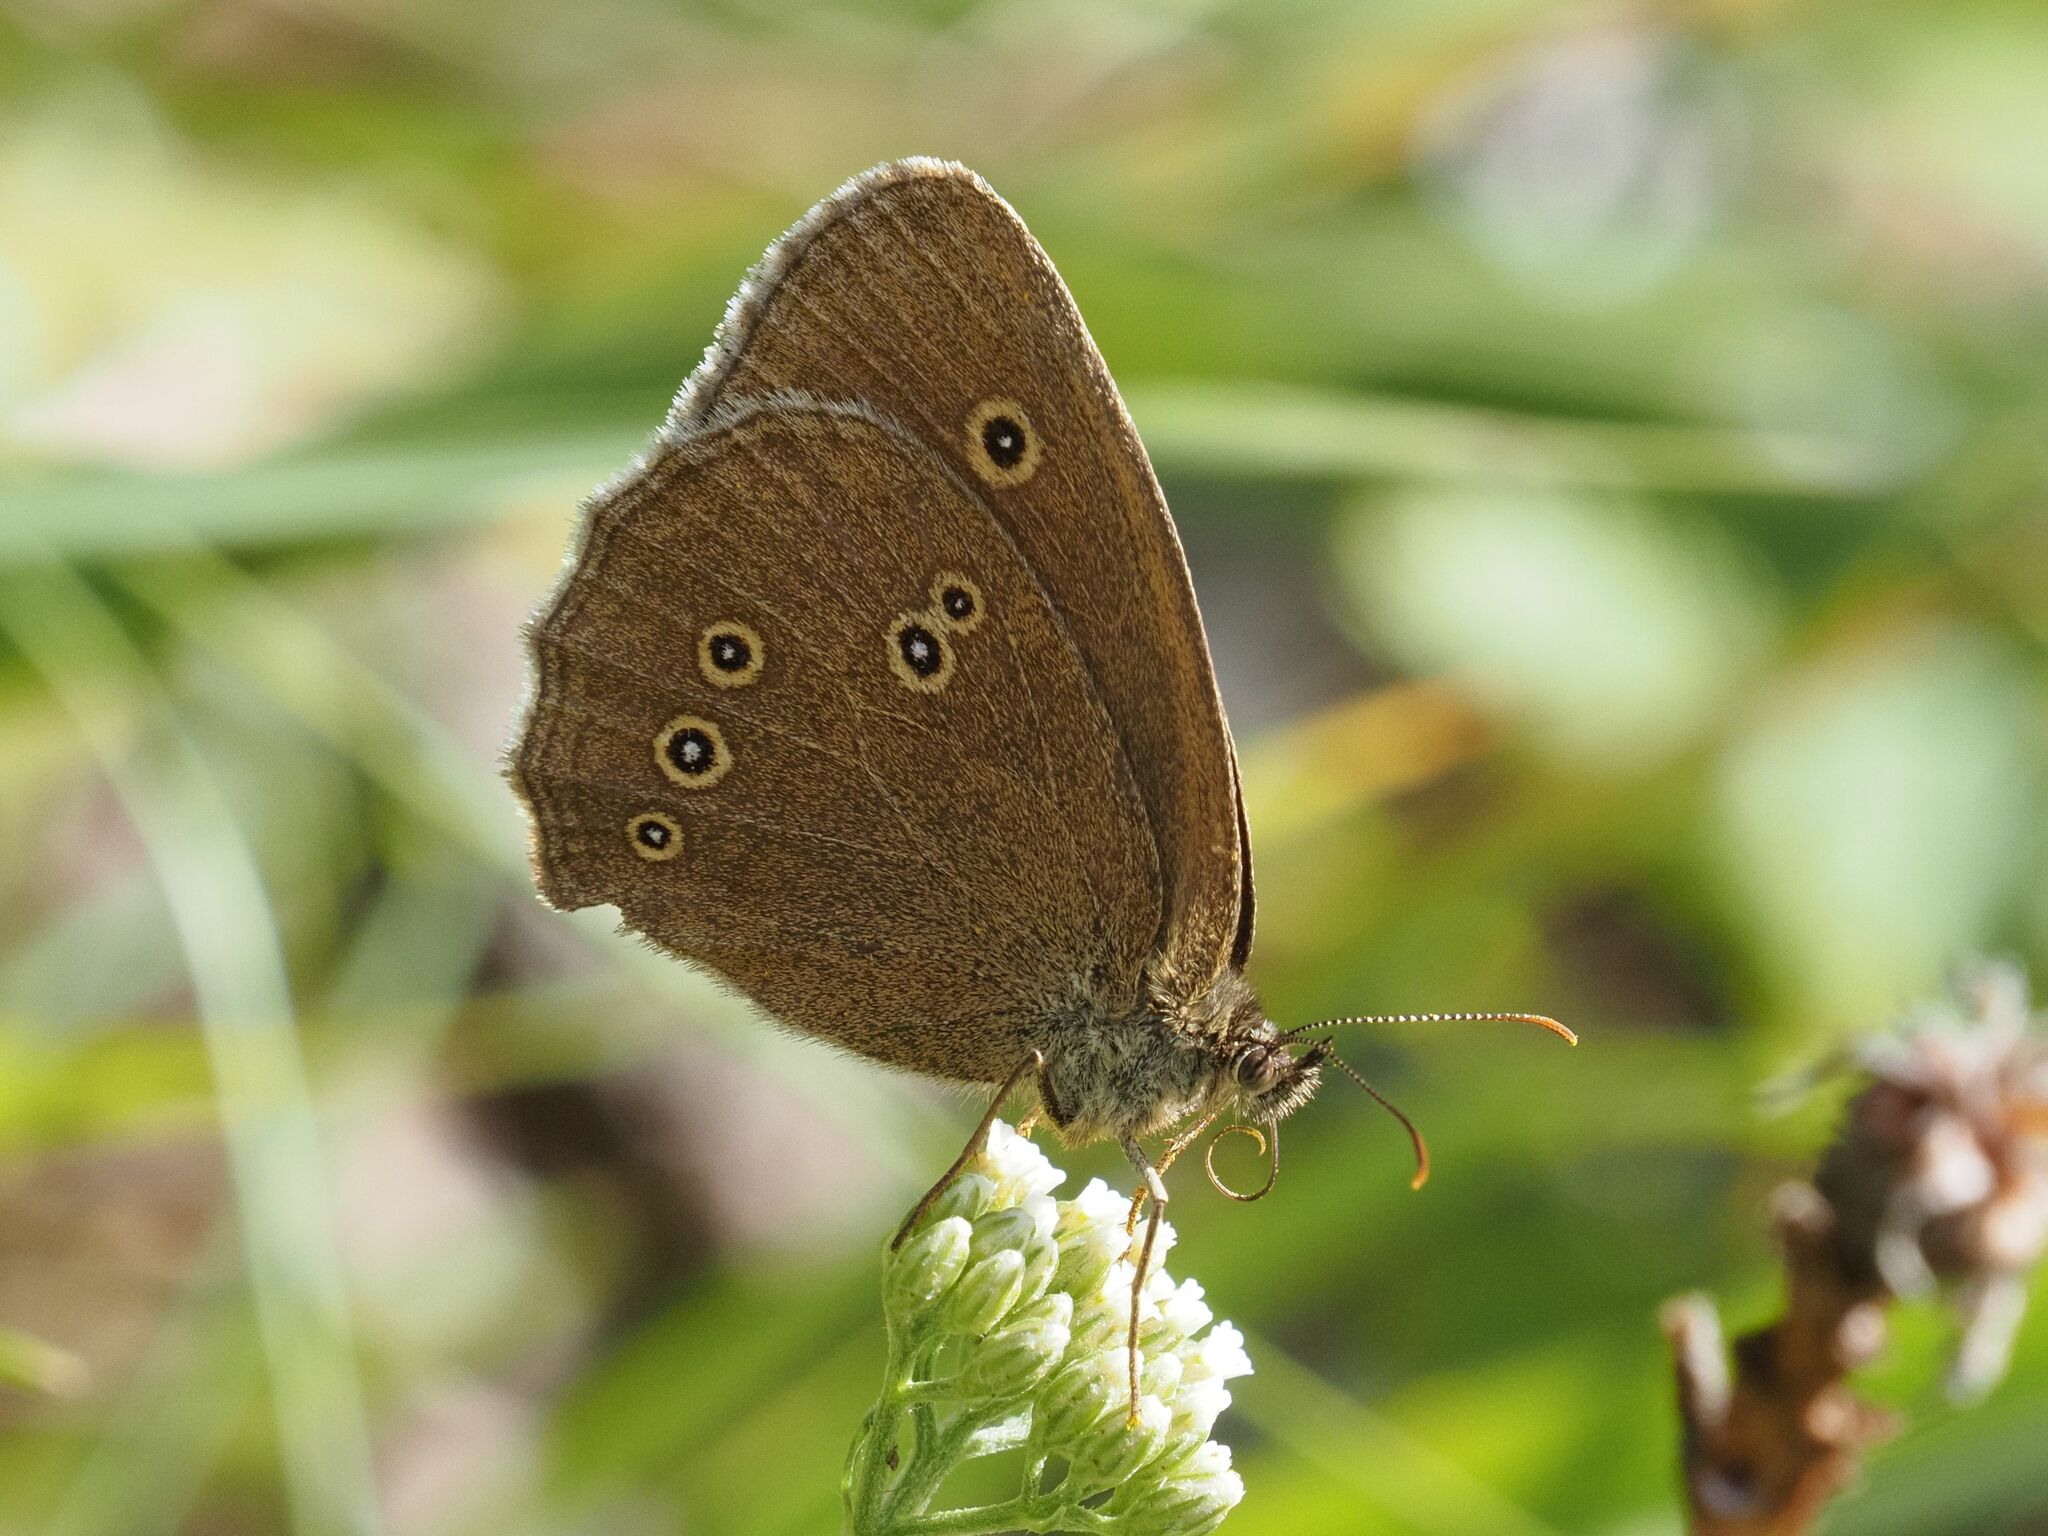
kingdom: Animalia
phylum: Arthropoda
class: Insecta
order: Lepidoptera
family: Nymphalidae
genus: Aphantopus
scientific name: Aphantopus hyperantus
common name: Ringlet
